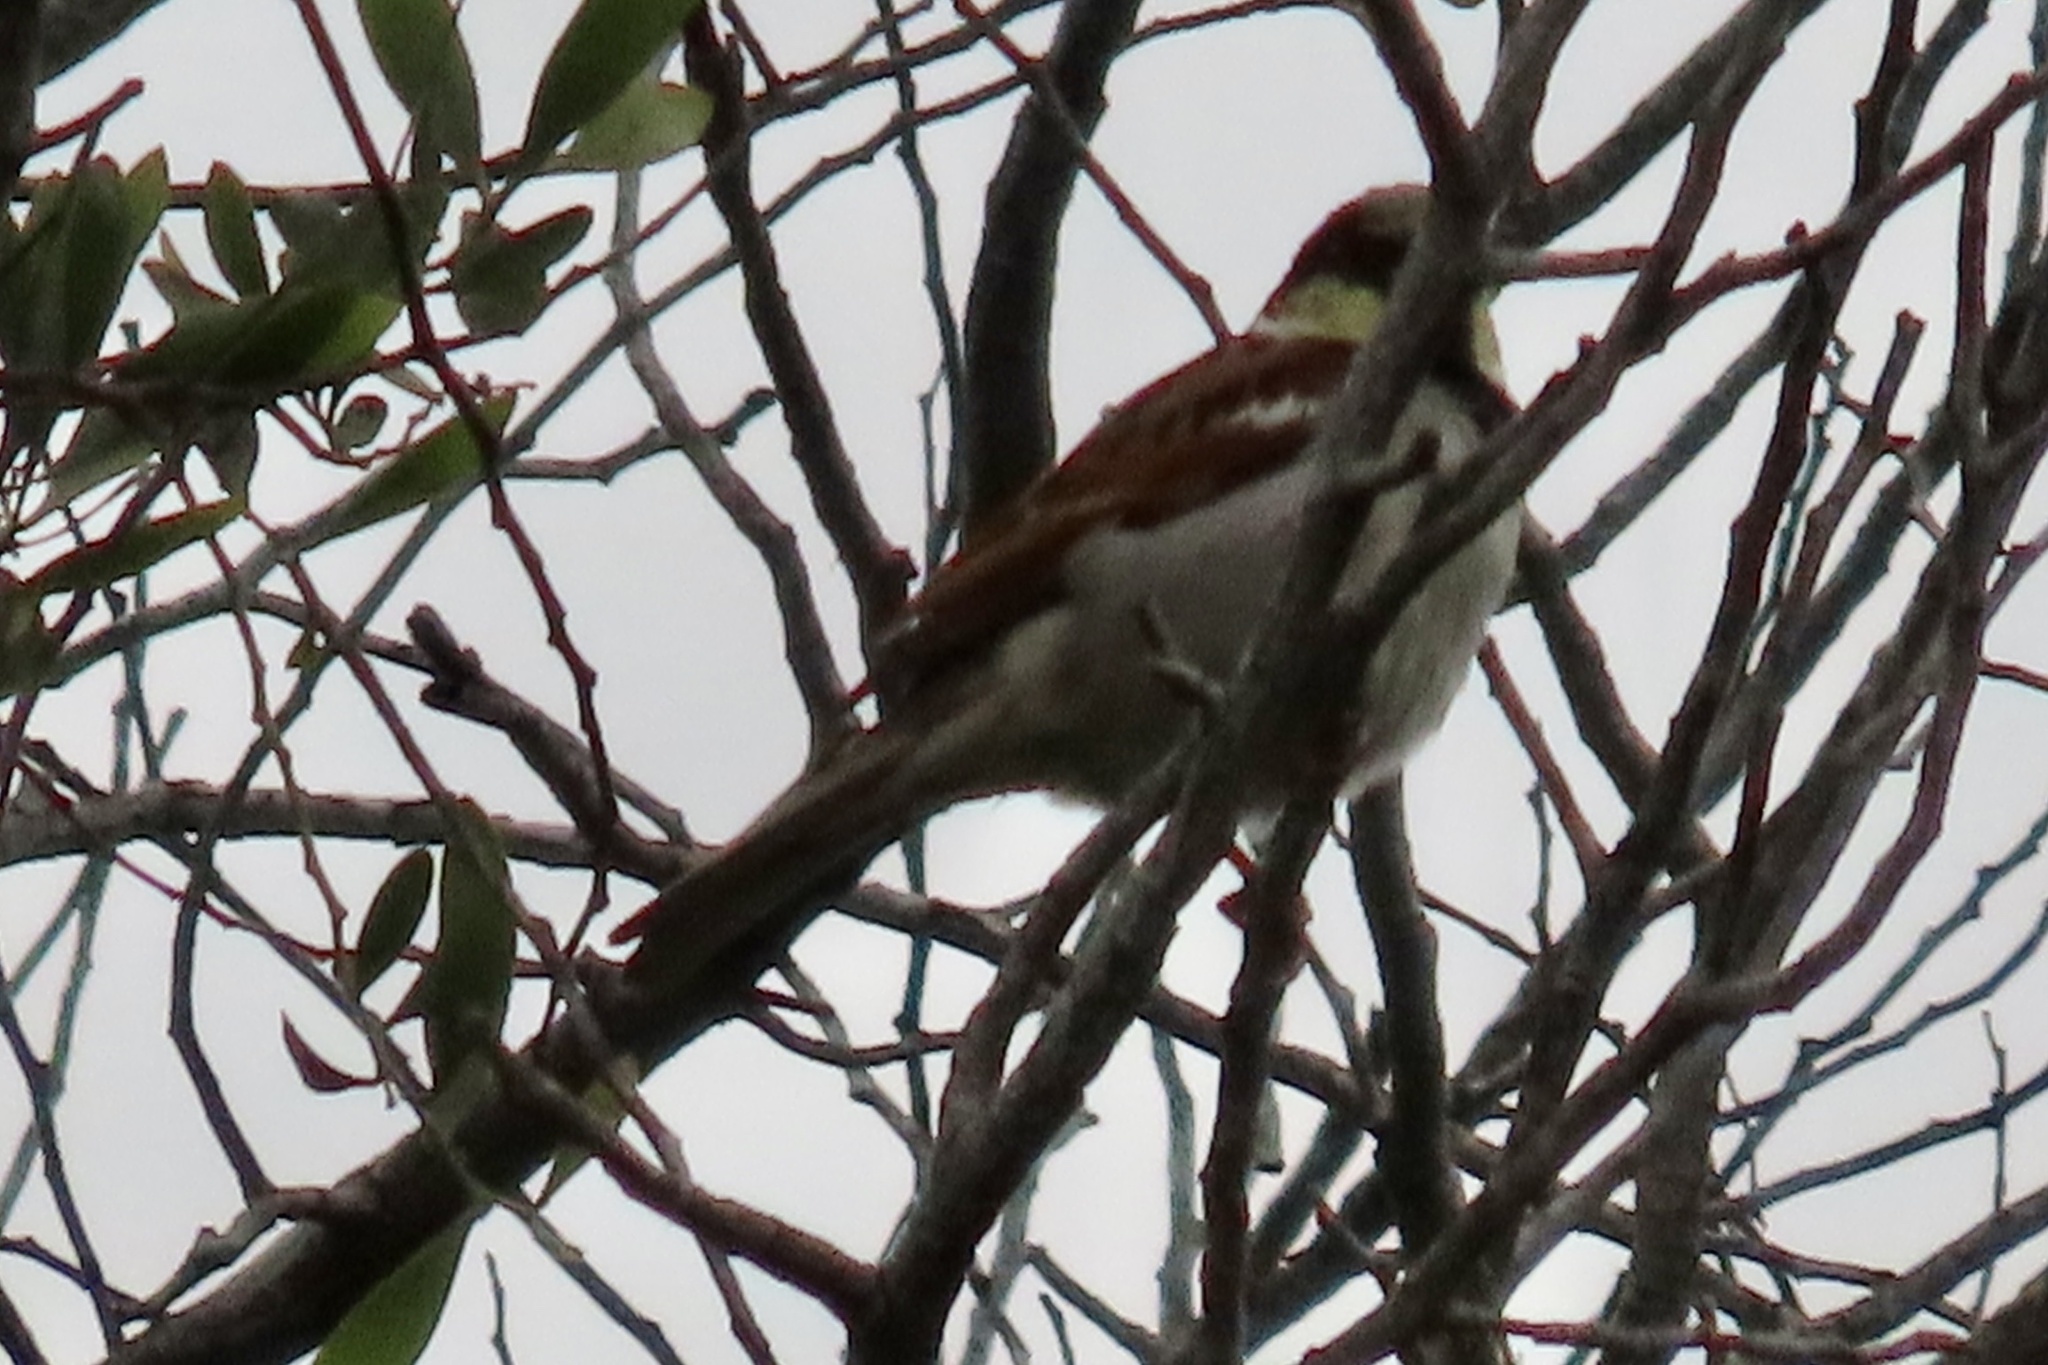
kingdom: Animalia
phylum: Chordata
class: Aves
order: Passeriformes
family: Passeridae
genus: Passer
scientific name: Passer domesticus
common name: House sparrow
